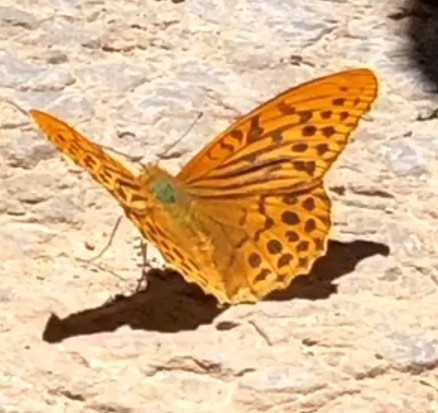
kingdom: Animalia
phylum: Arthropoda
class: Insecta
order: Lepidoptera
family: Nymphalidae
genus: Argynnis
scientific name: Argynnis paphia
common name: Silver-washed fritillary
